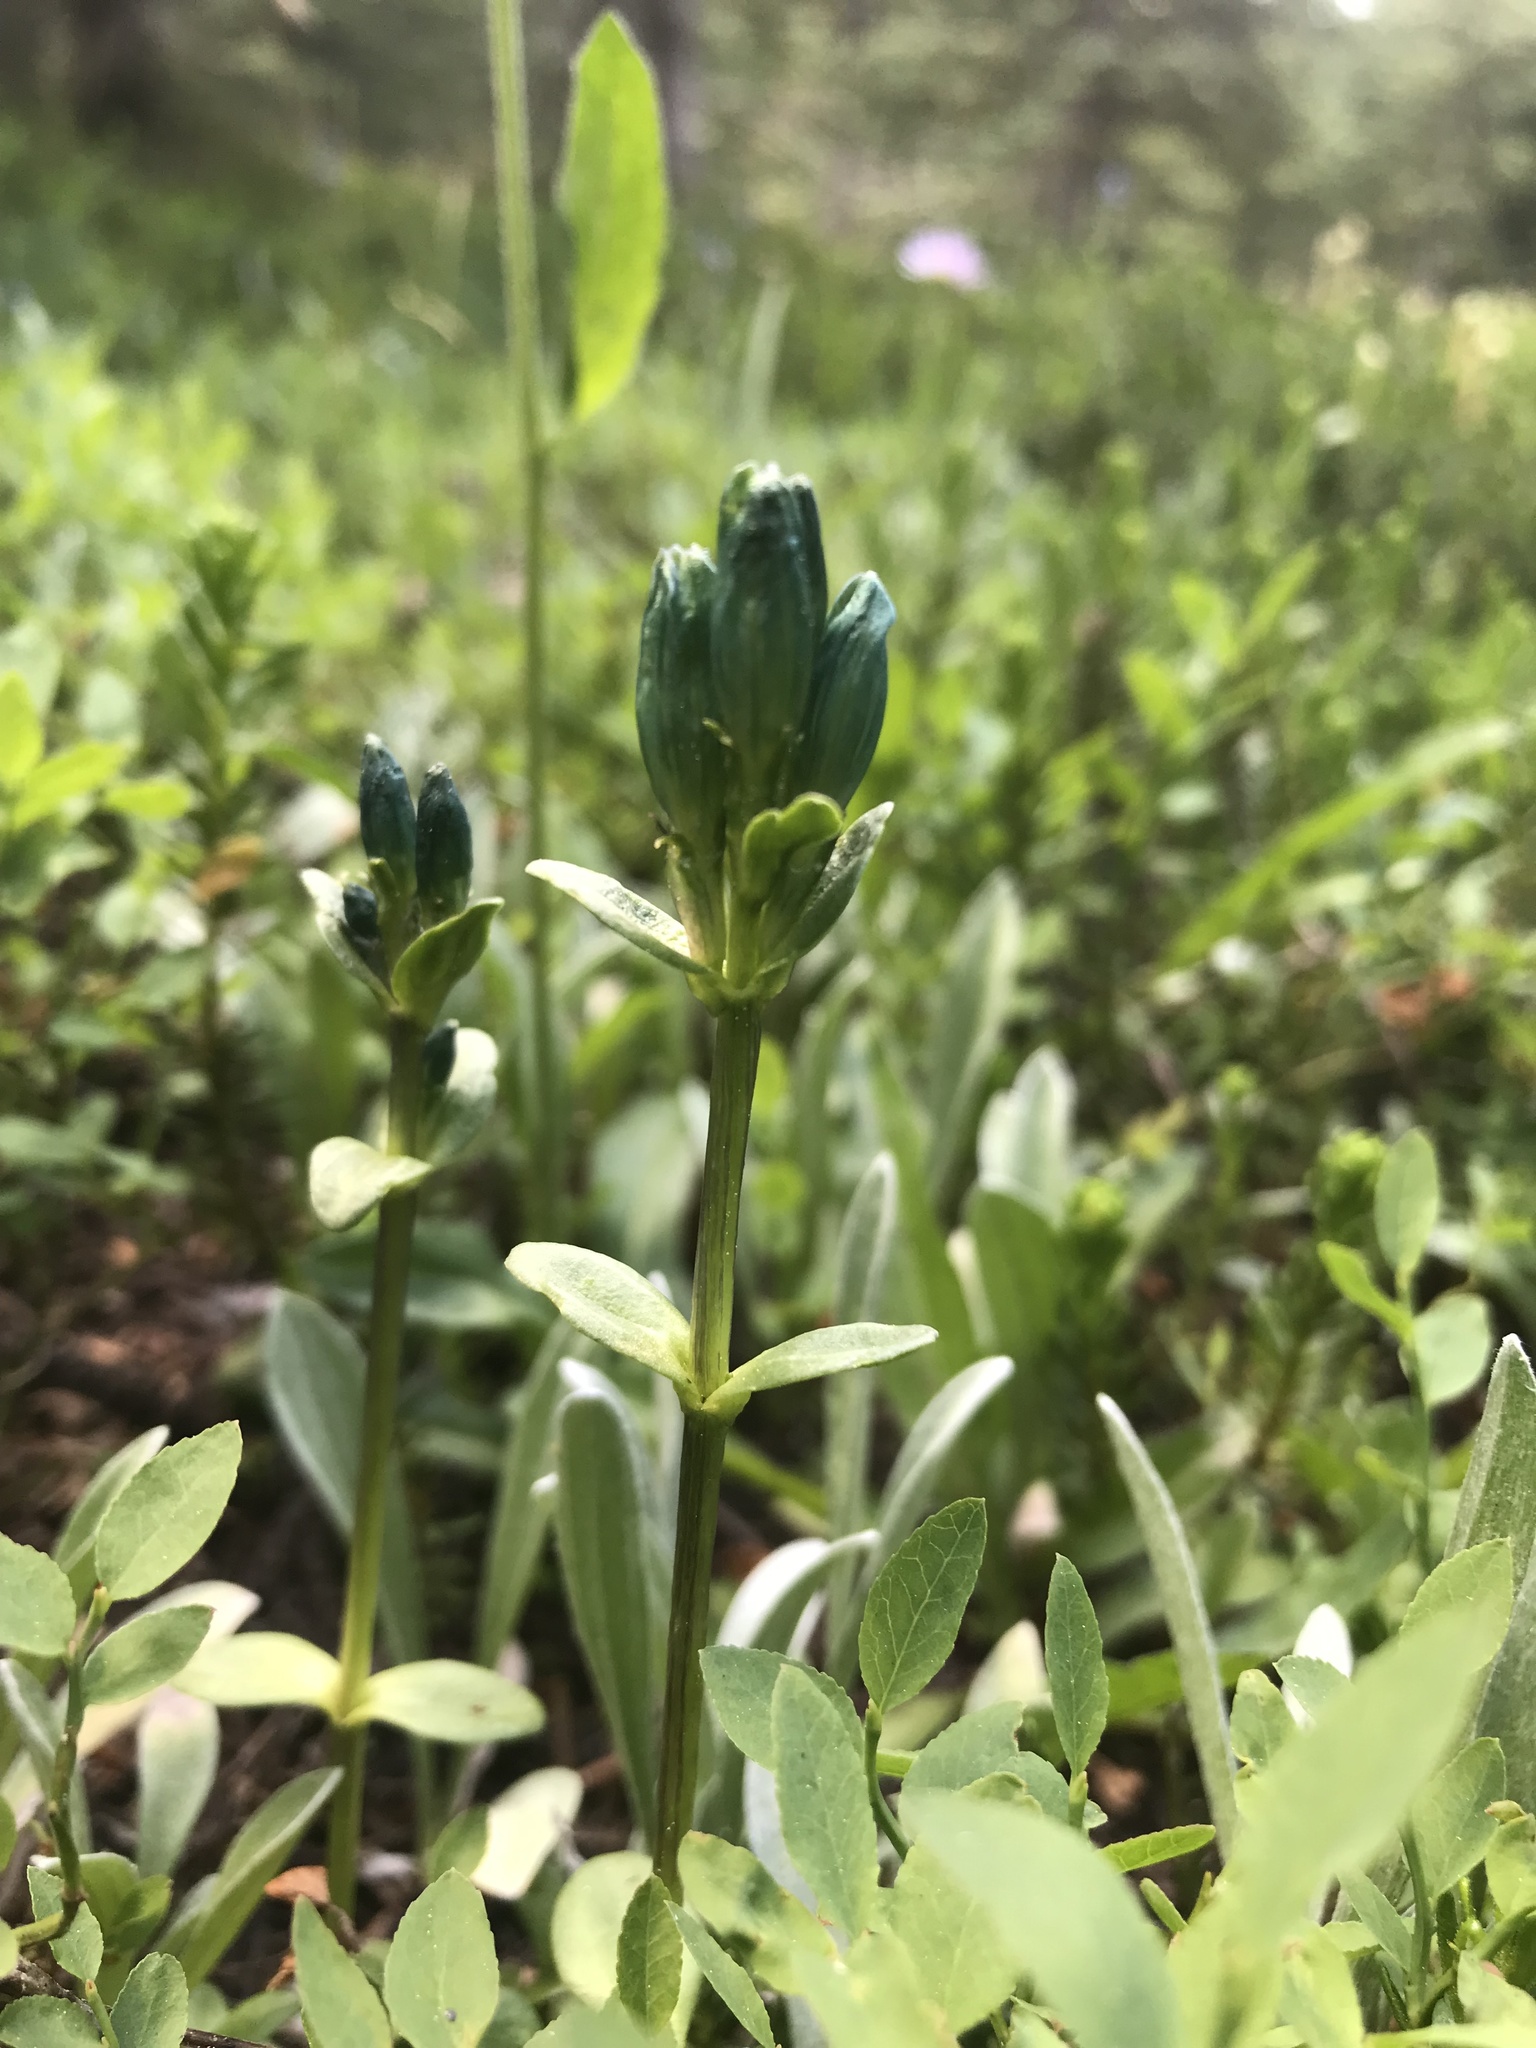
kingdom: Plantae
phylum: Tracheophyta
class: Magnoliopsida
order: Gentianales
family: Gentianaceae
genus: Gentiana
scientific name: Gentiana glauca
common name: Alpine gentian
